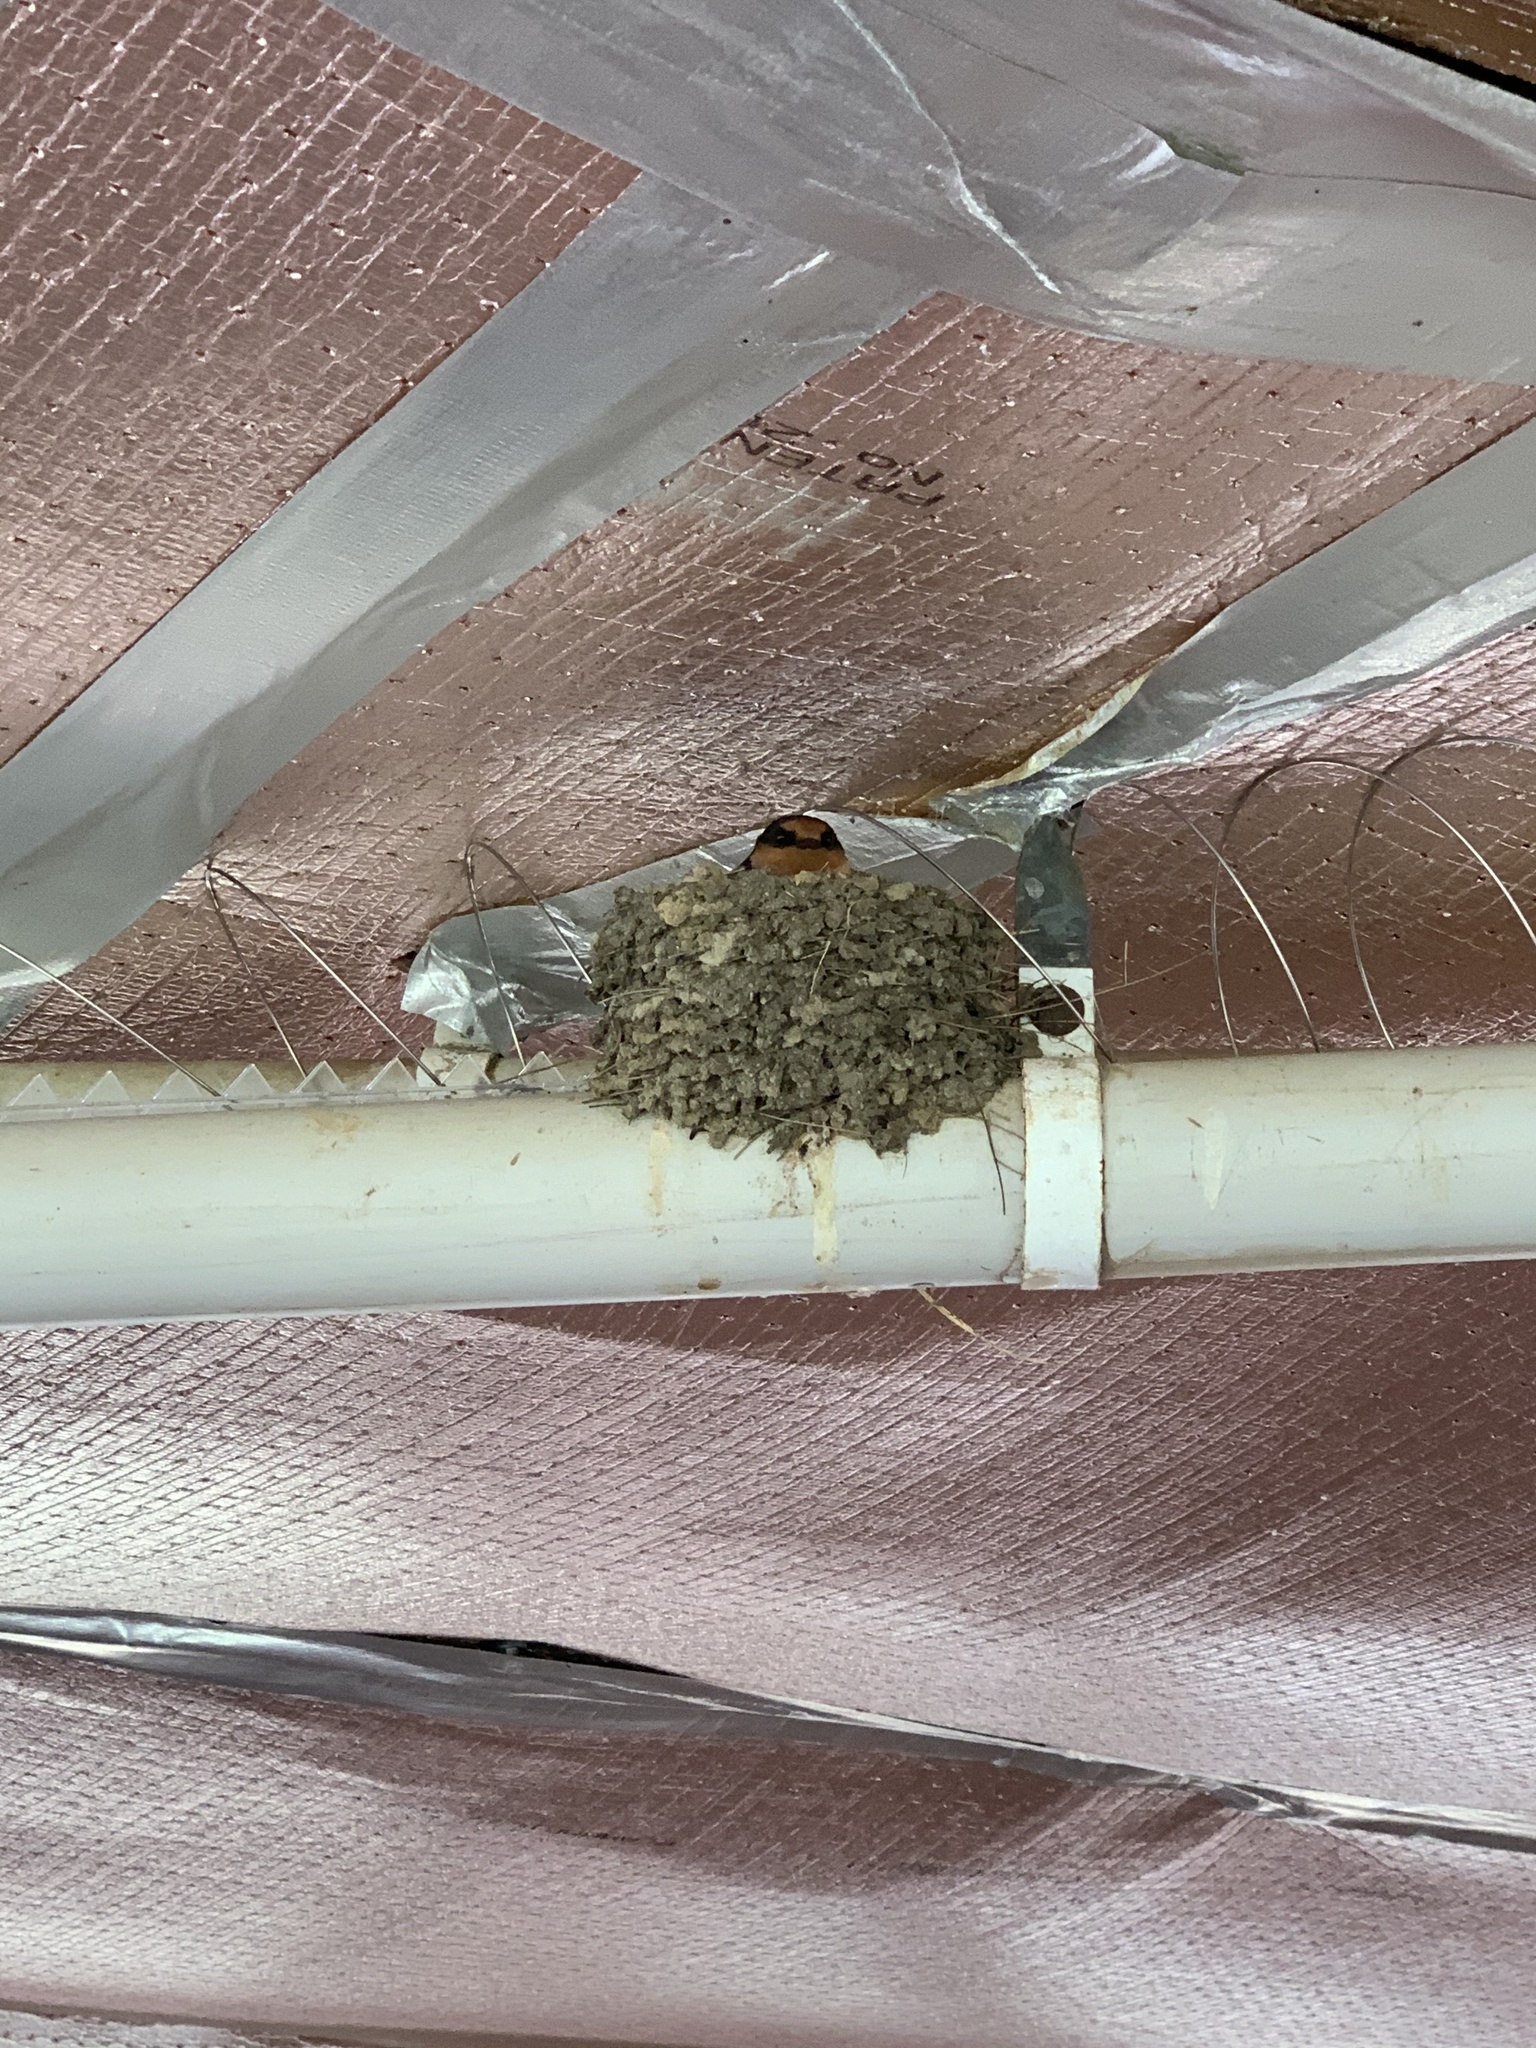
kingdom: Animalia
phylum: Chordata
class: Aves
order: Passeriformes
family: Hirundinidae
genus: Hirundo
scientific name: Hirundo neoxena
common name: Welcome swallow
